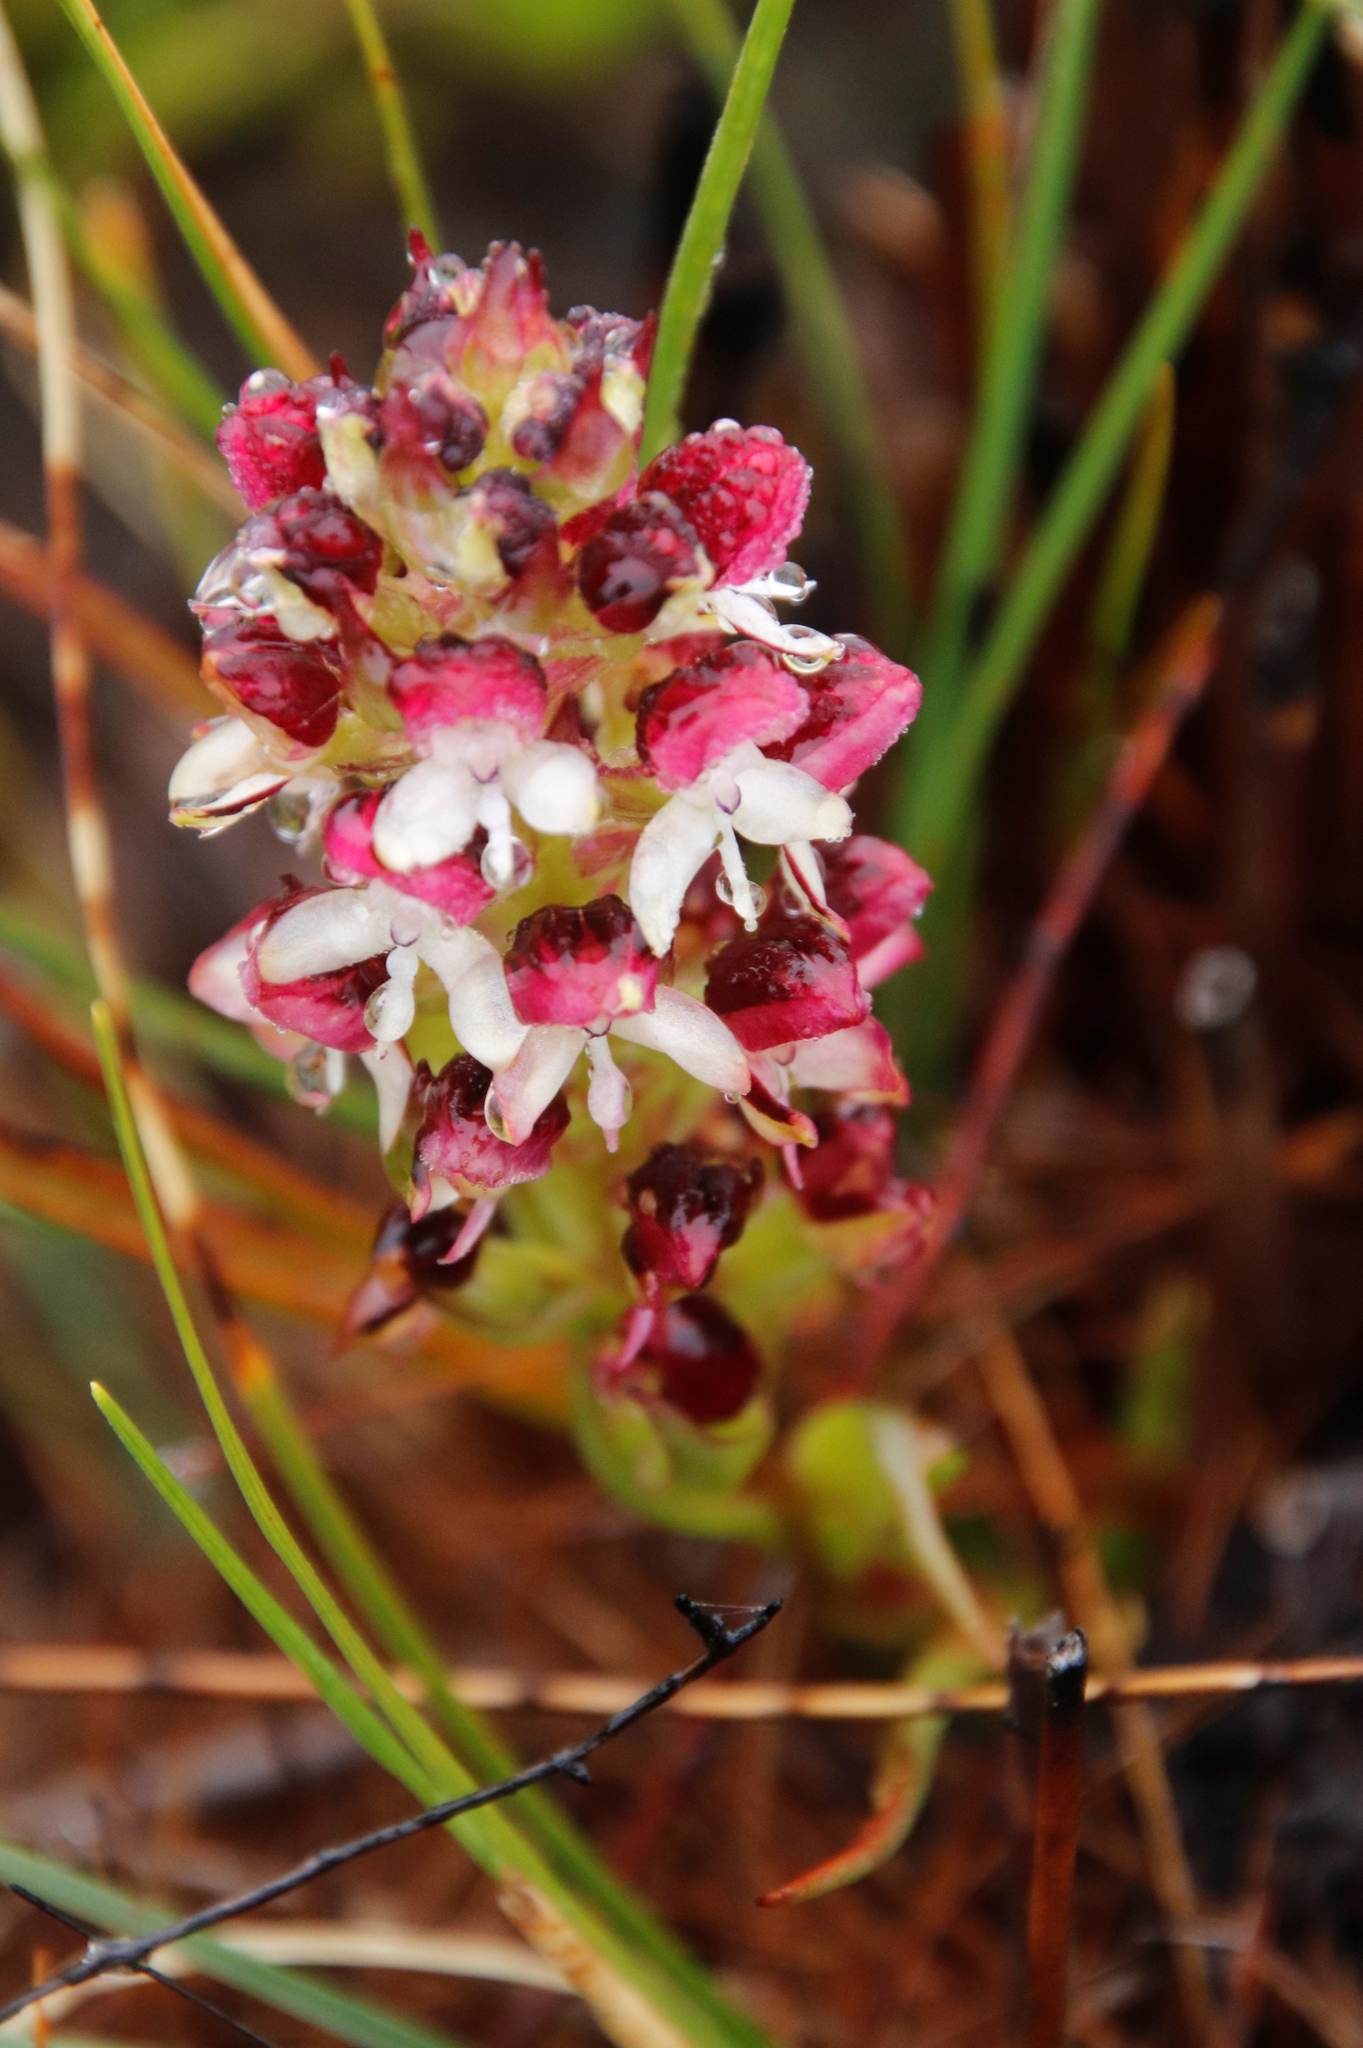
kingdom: Plantae
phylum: Tracheophyta
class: Liliopsida
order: Asparagales
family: Orchidaceae
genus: Disa
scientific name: Disa albomagentea
